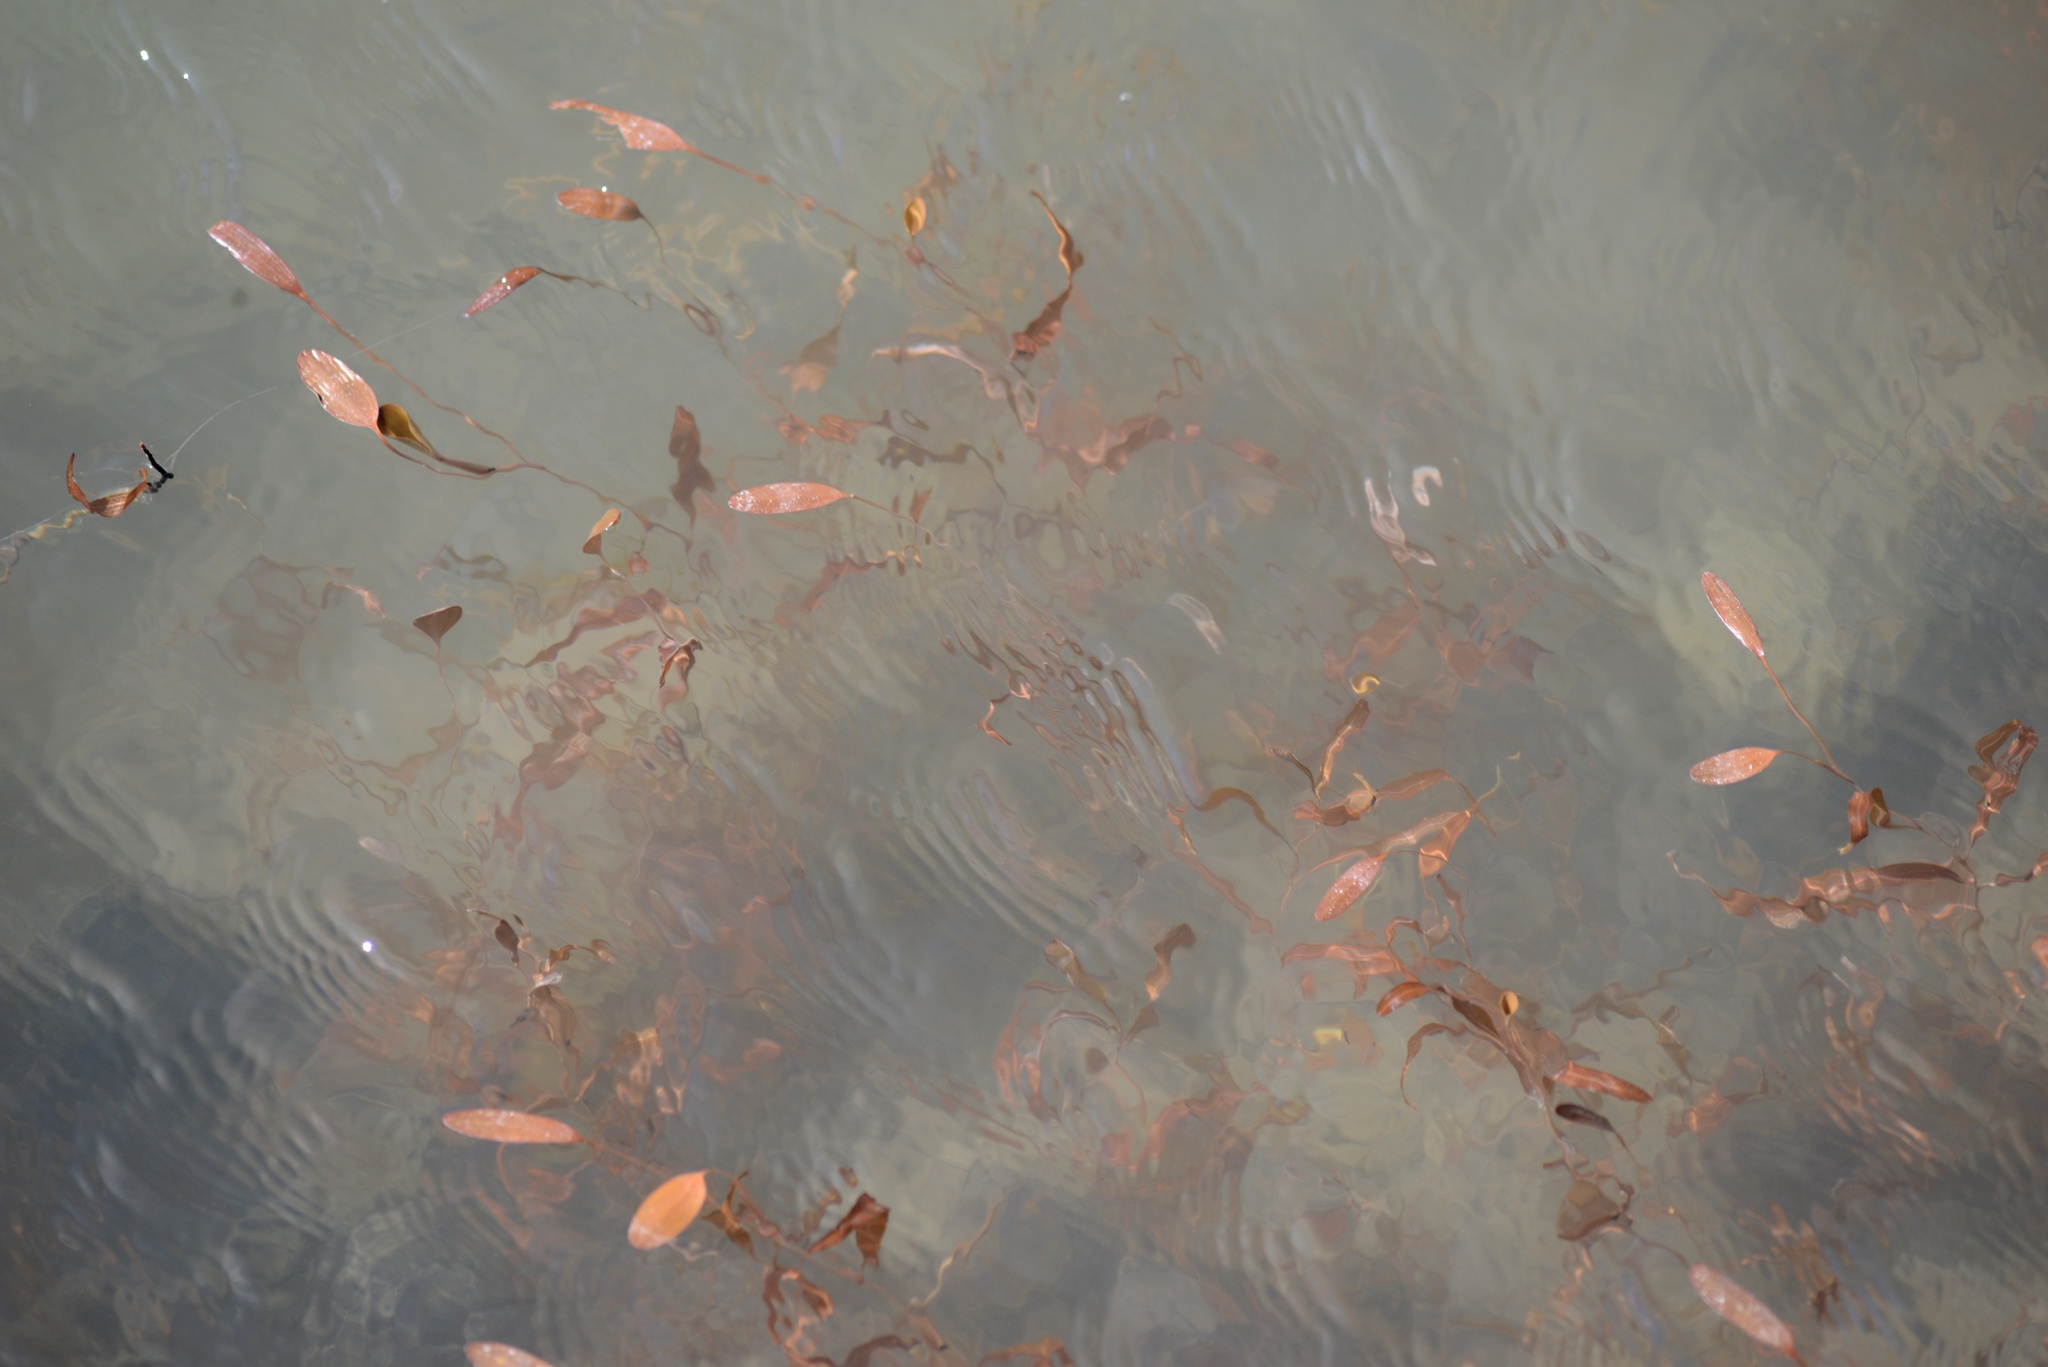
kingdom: Plantae
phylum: Tracheophyta
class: Liliopsida
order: Alismatales
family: Potamogetonaceae
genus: Potamogeton
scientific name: Potamogeton cheesemanii
